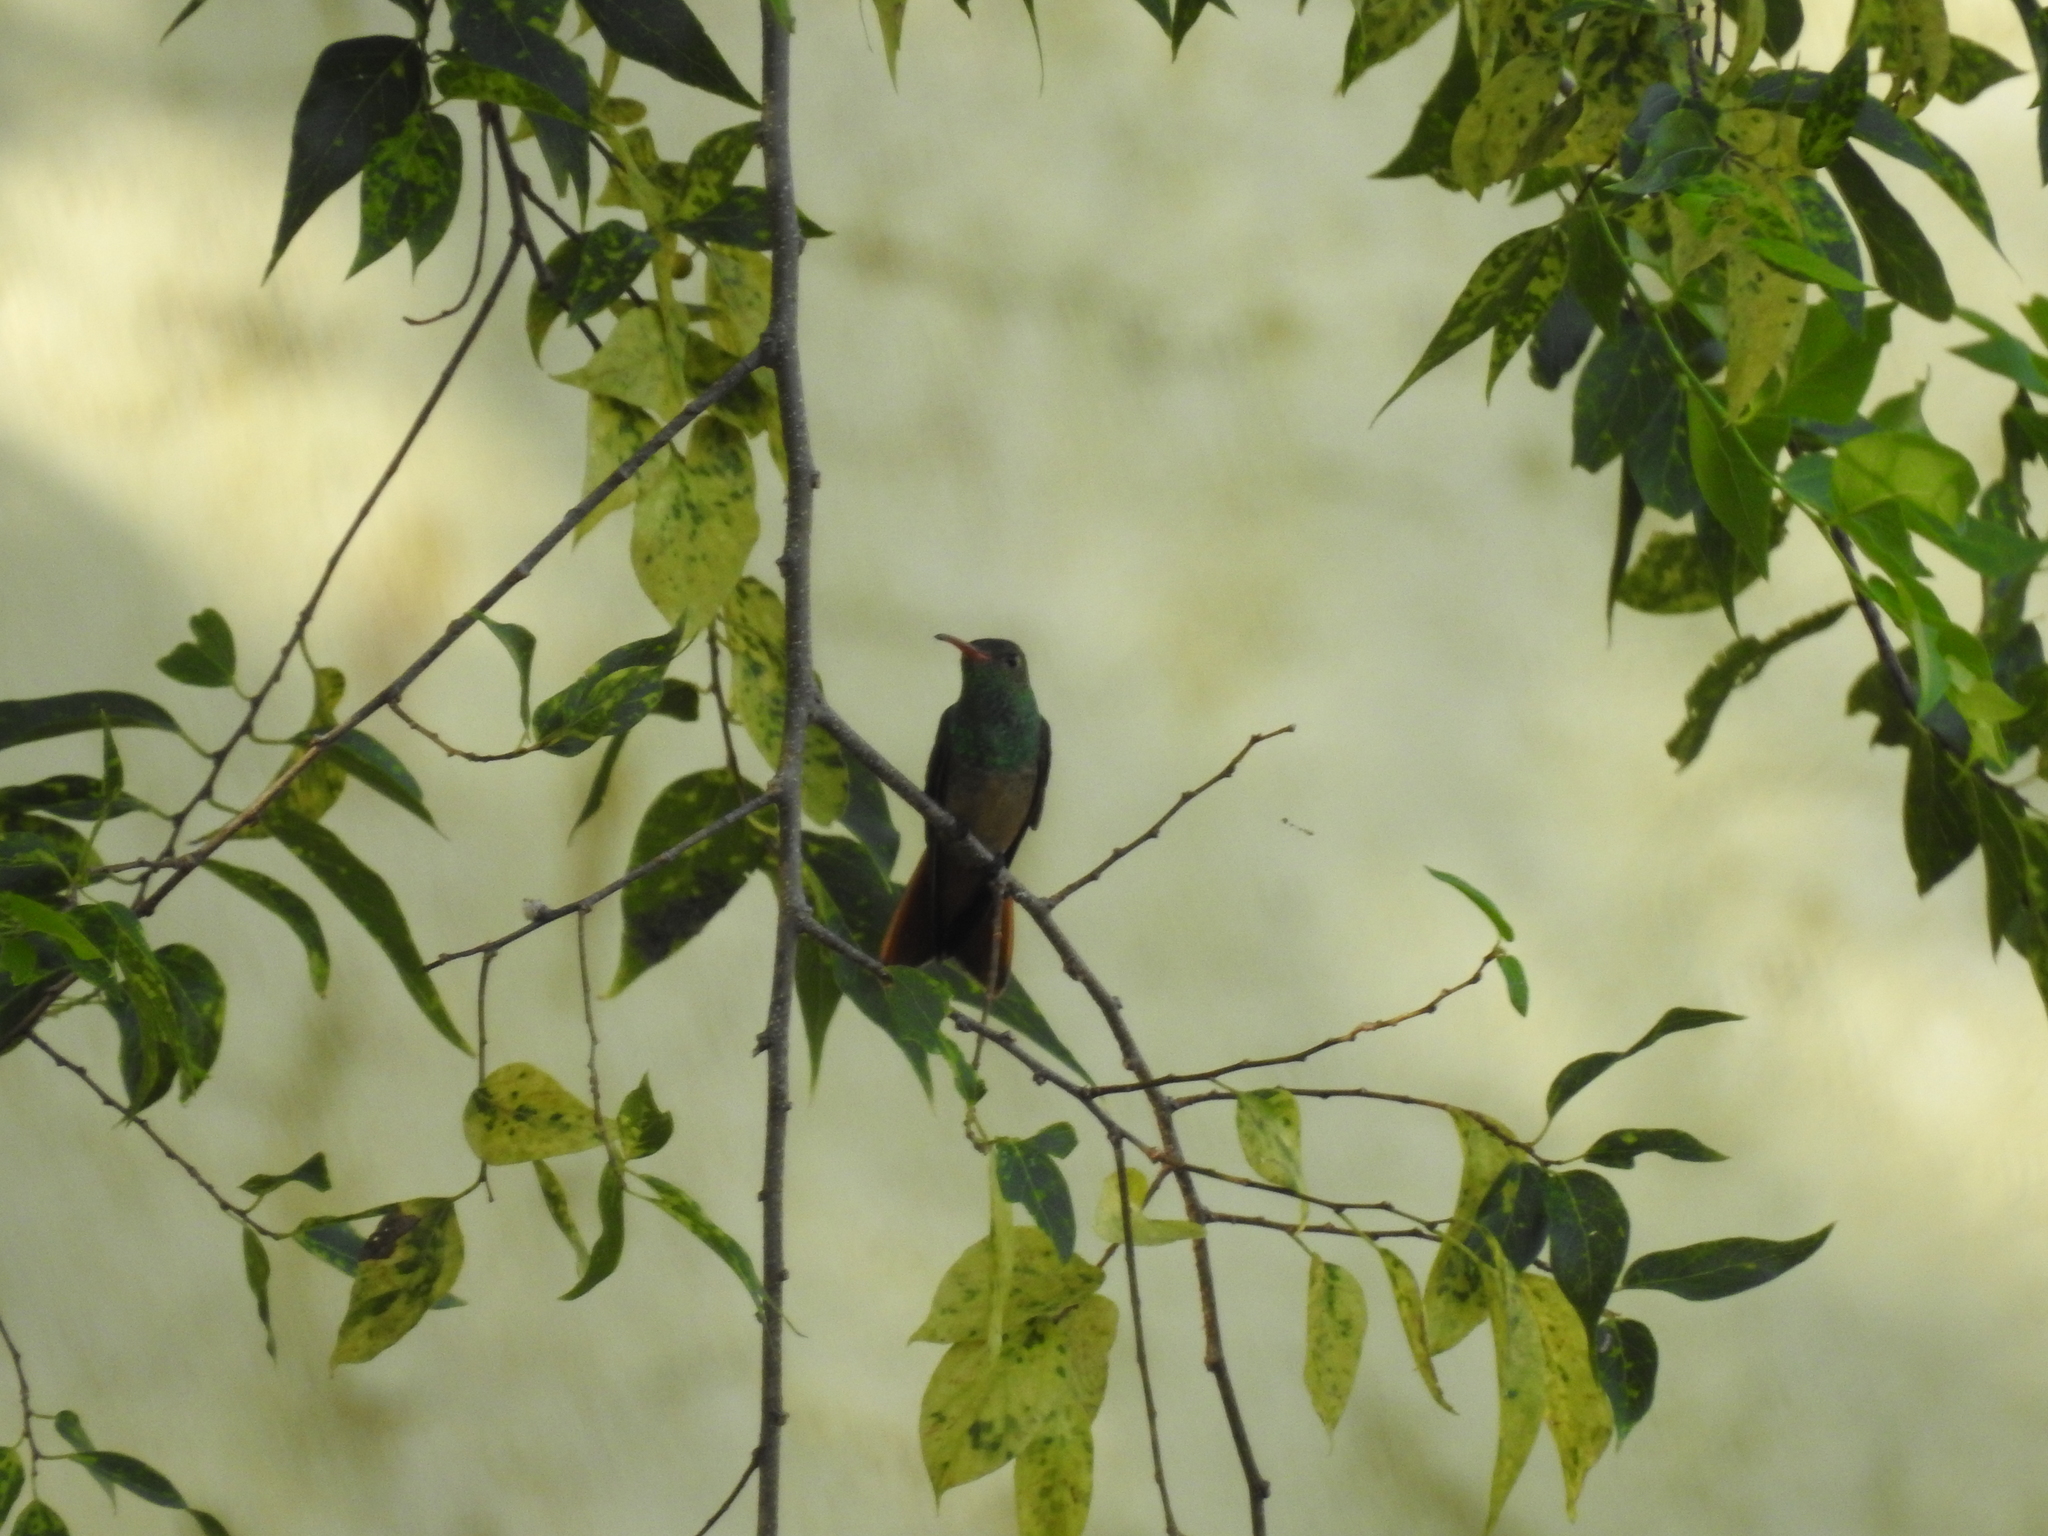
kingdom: Animalia
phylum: Chordata
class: Aves
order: Apodiformes
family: Trochilidae
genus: Amazilia
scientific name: Amazilia yucatanensis
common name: Buff-bellied hummingbird
